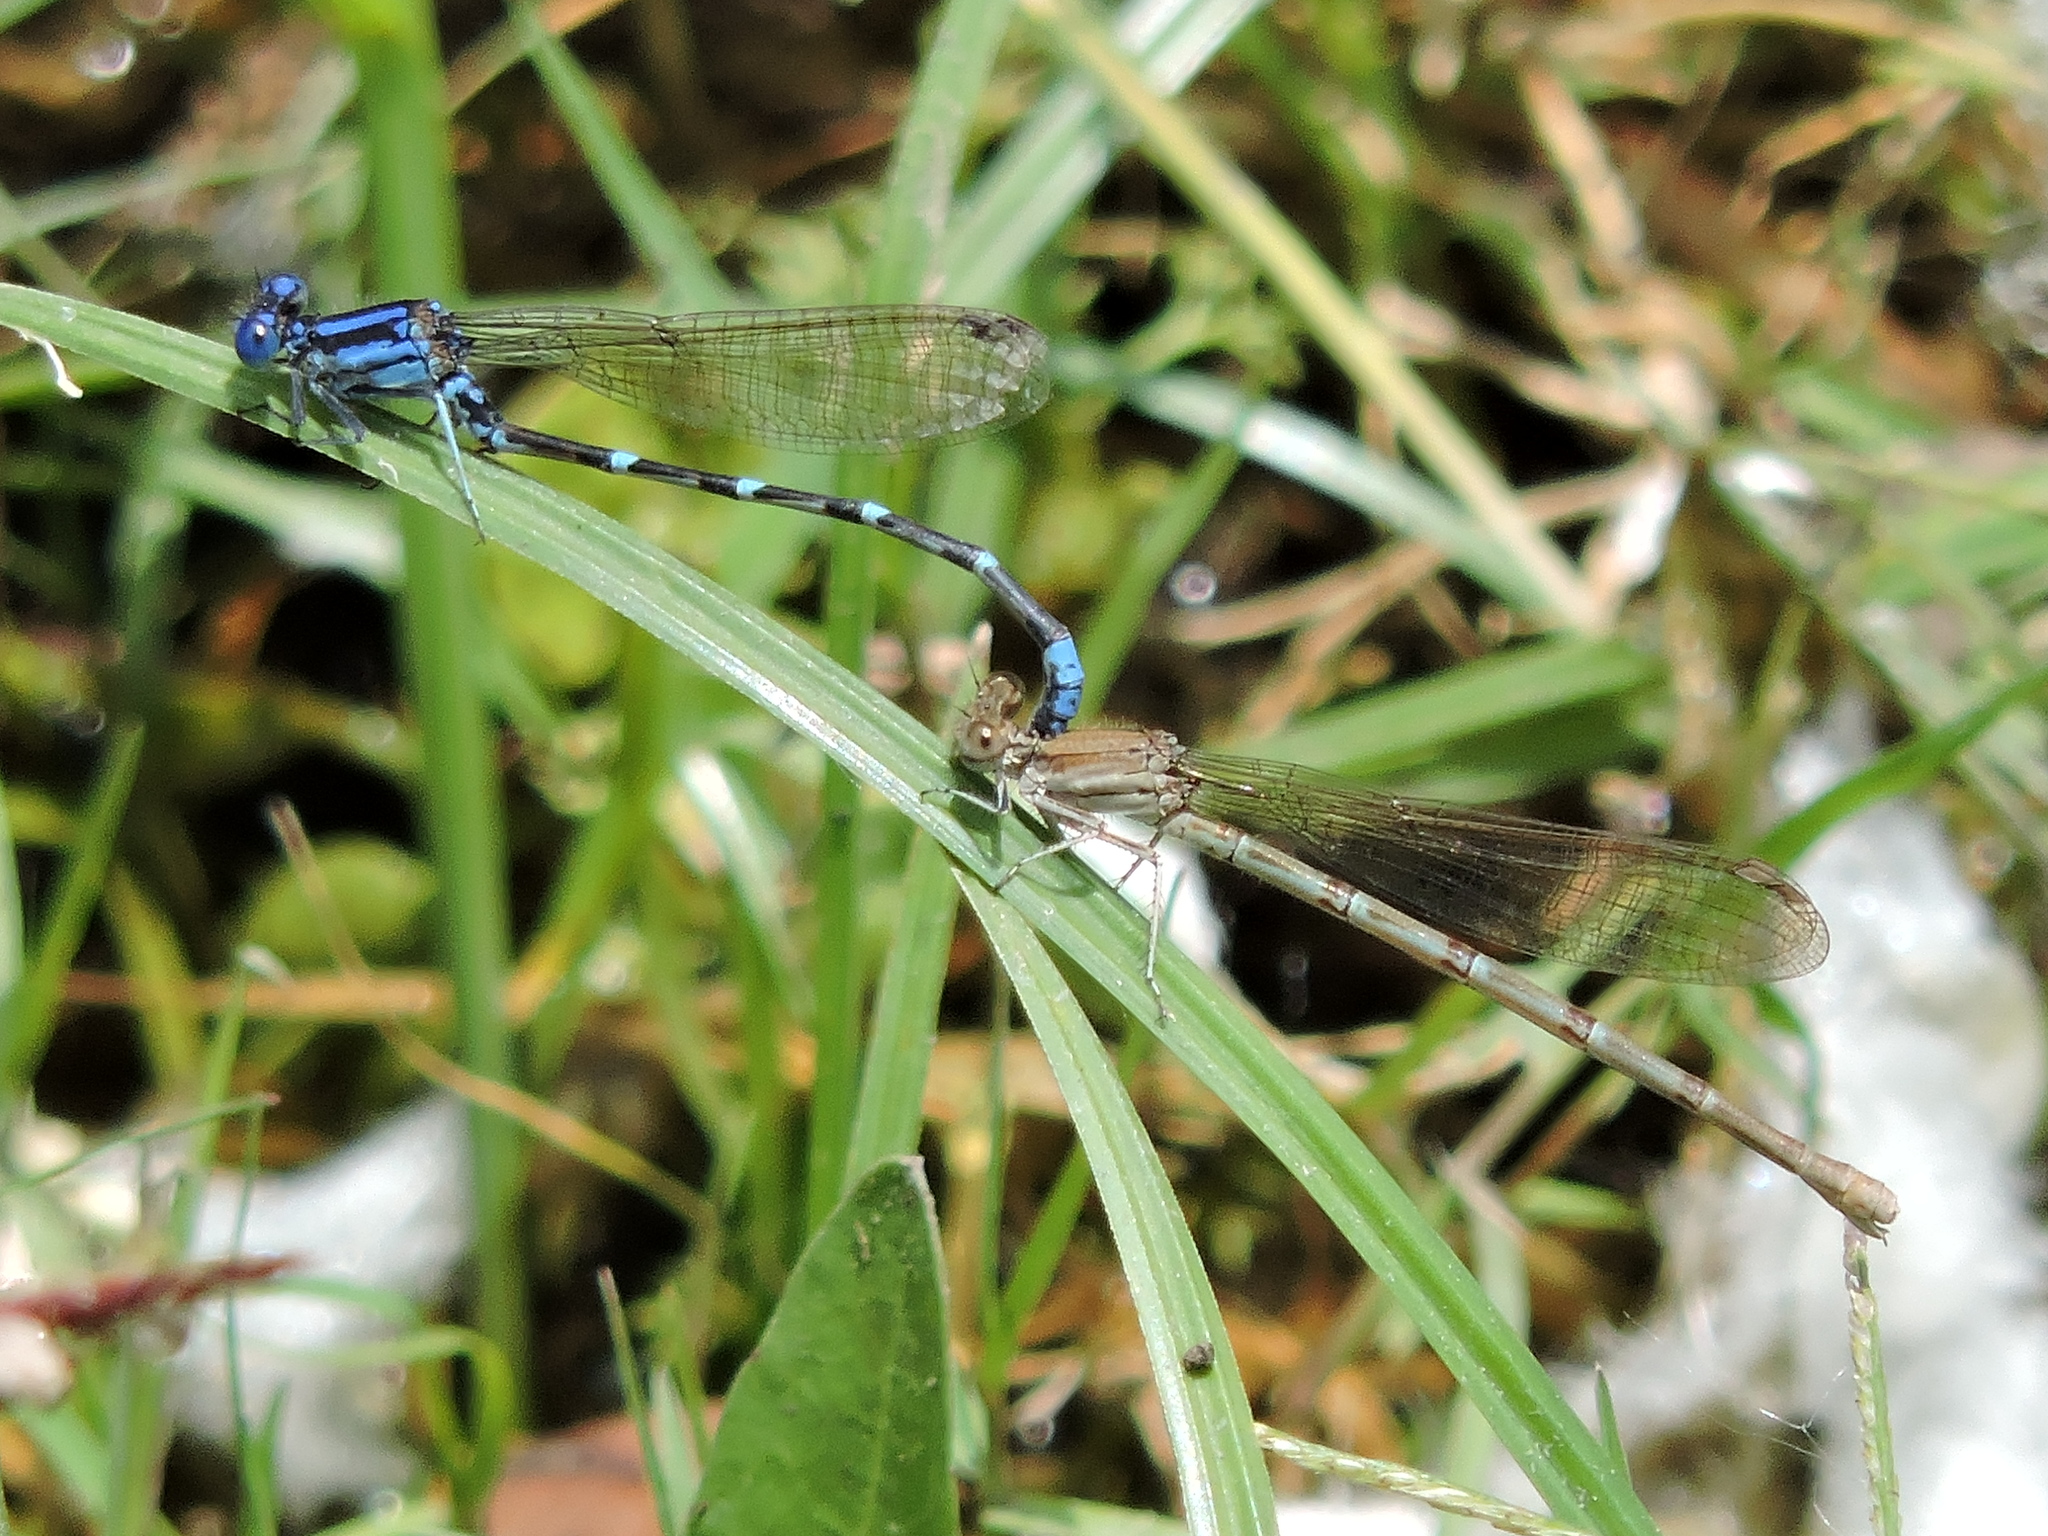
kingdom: Animalia
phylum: Arthropoda
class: Insecta
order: Odonata
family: Coenagrionidae
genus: Argia
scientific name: Argia sedula
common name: Blue-ringed dancer
